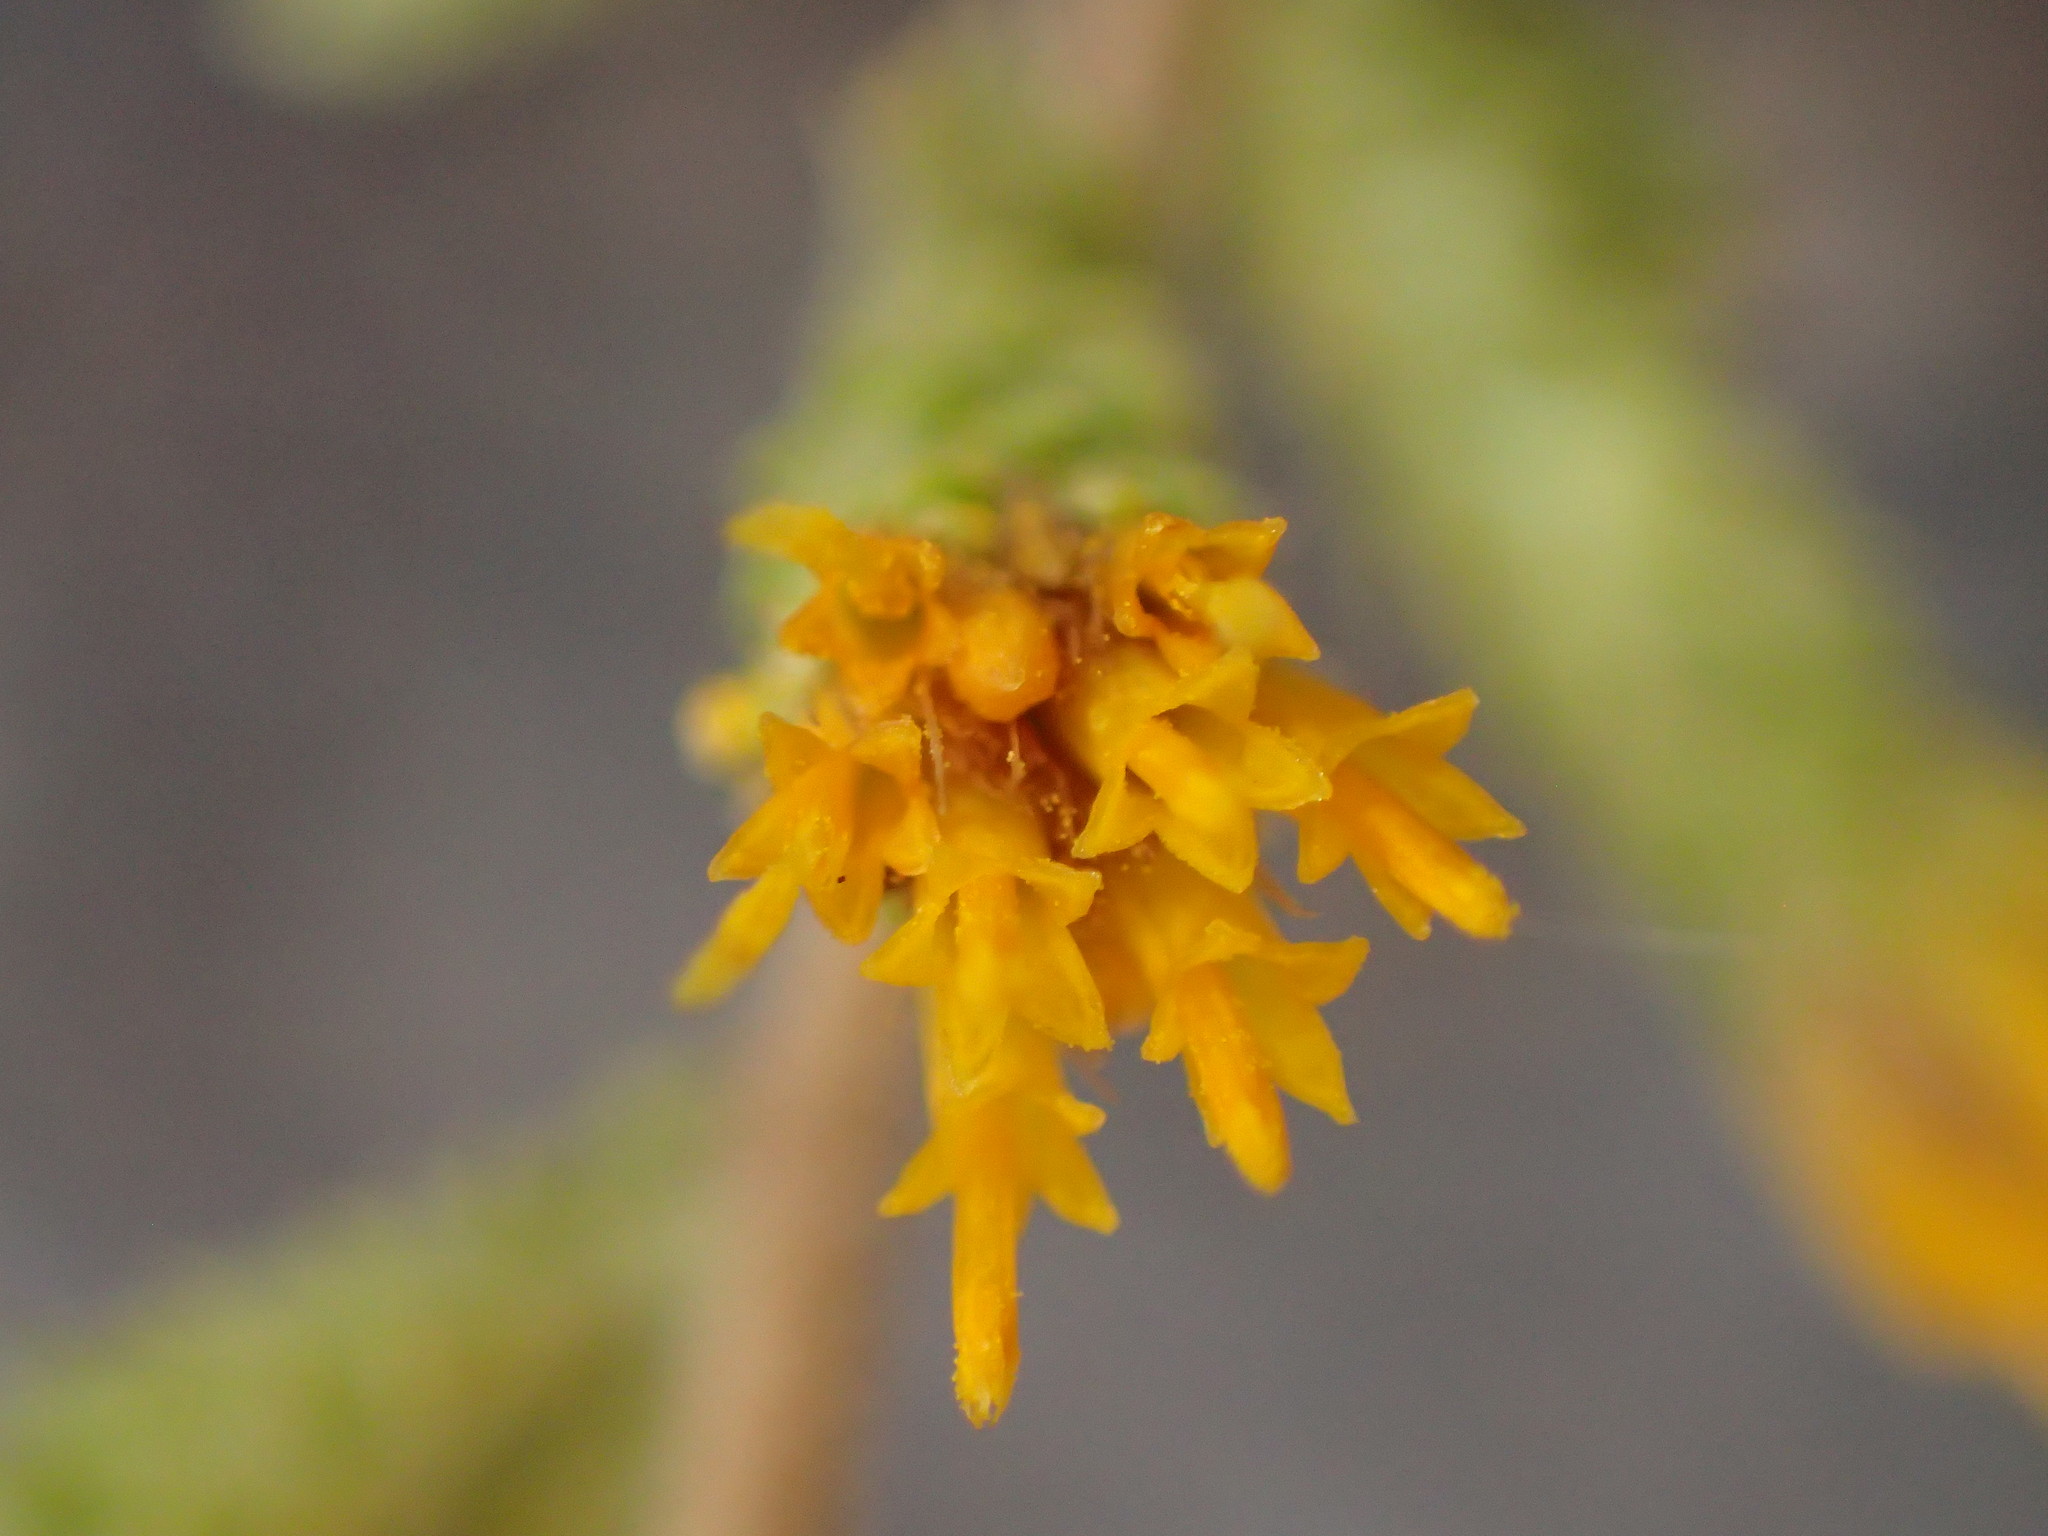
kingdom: Plantae
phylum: Tracheophyta
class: Magnoliopsida
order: Asterales
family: Asteraceae
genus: Hazardia
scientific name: Hazardia squarrosa
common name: Saw-tooth goldenbush
